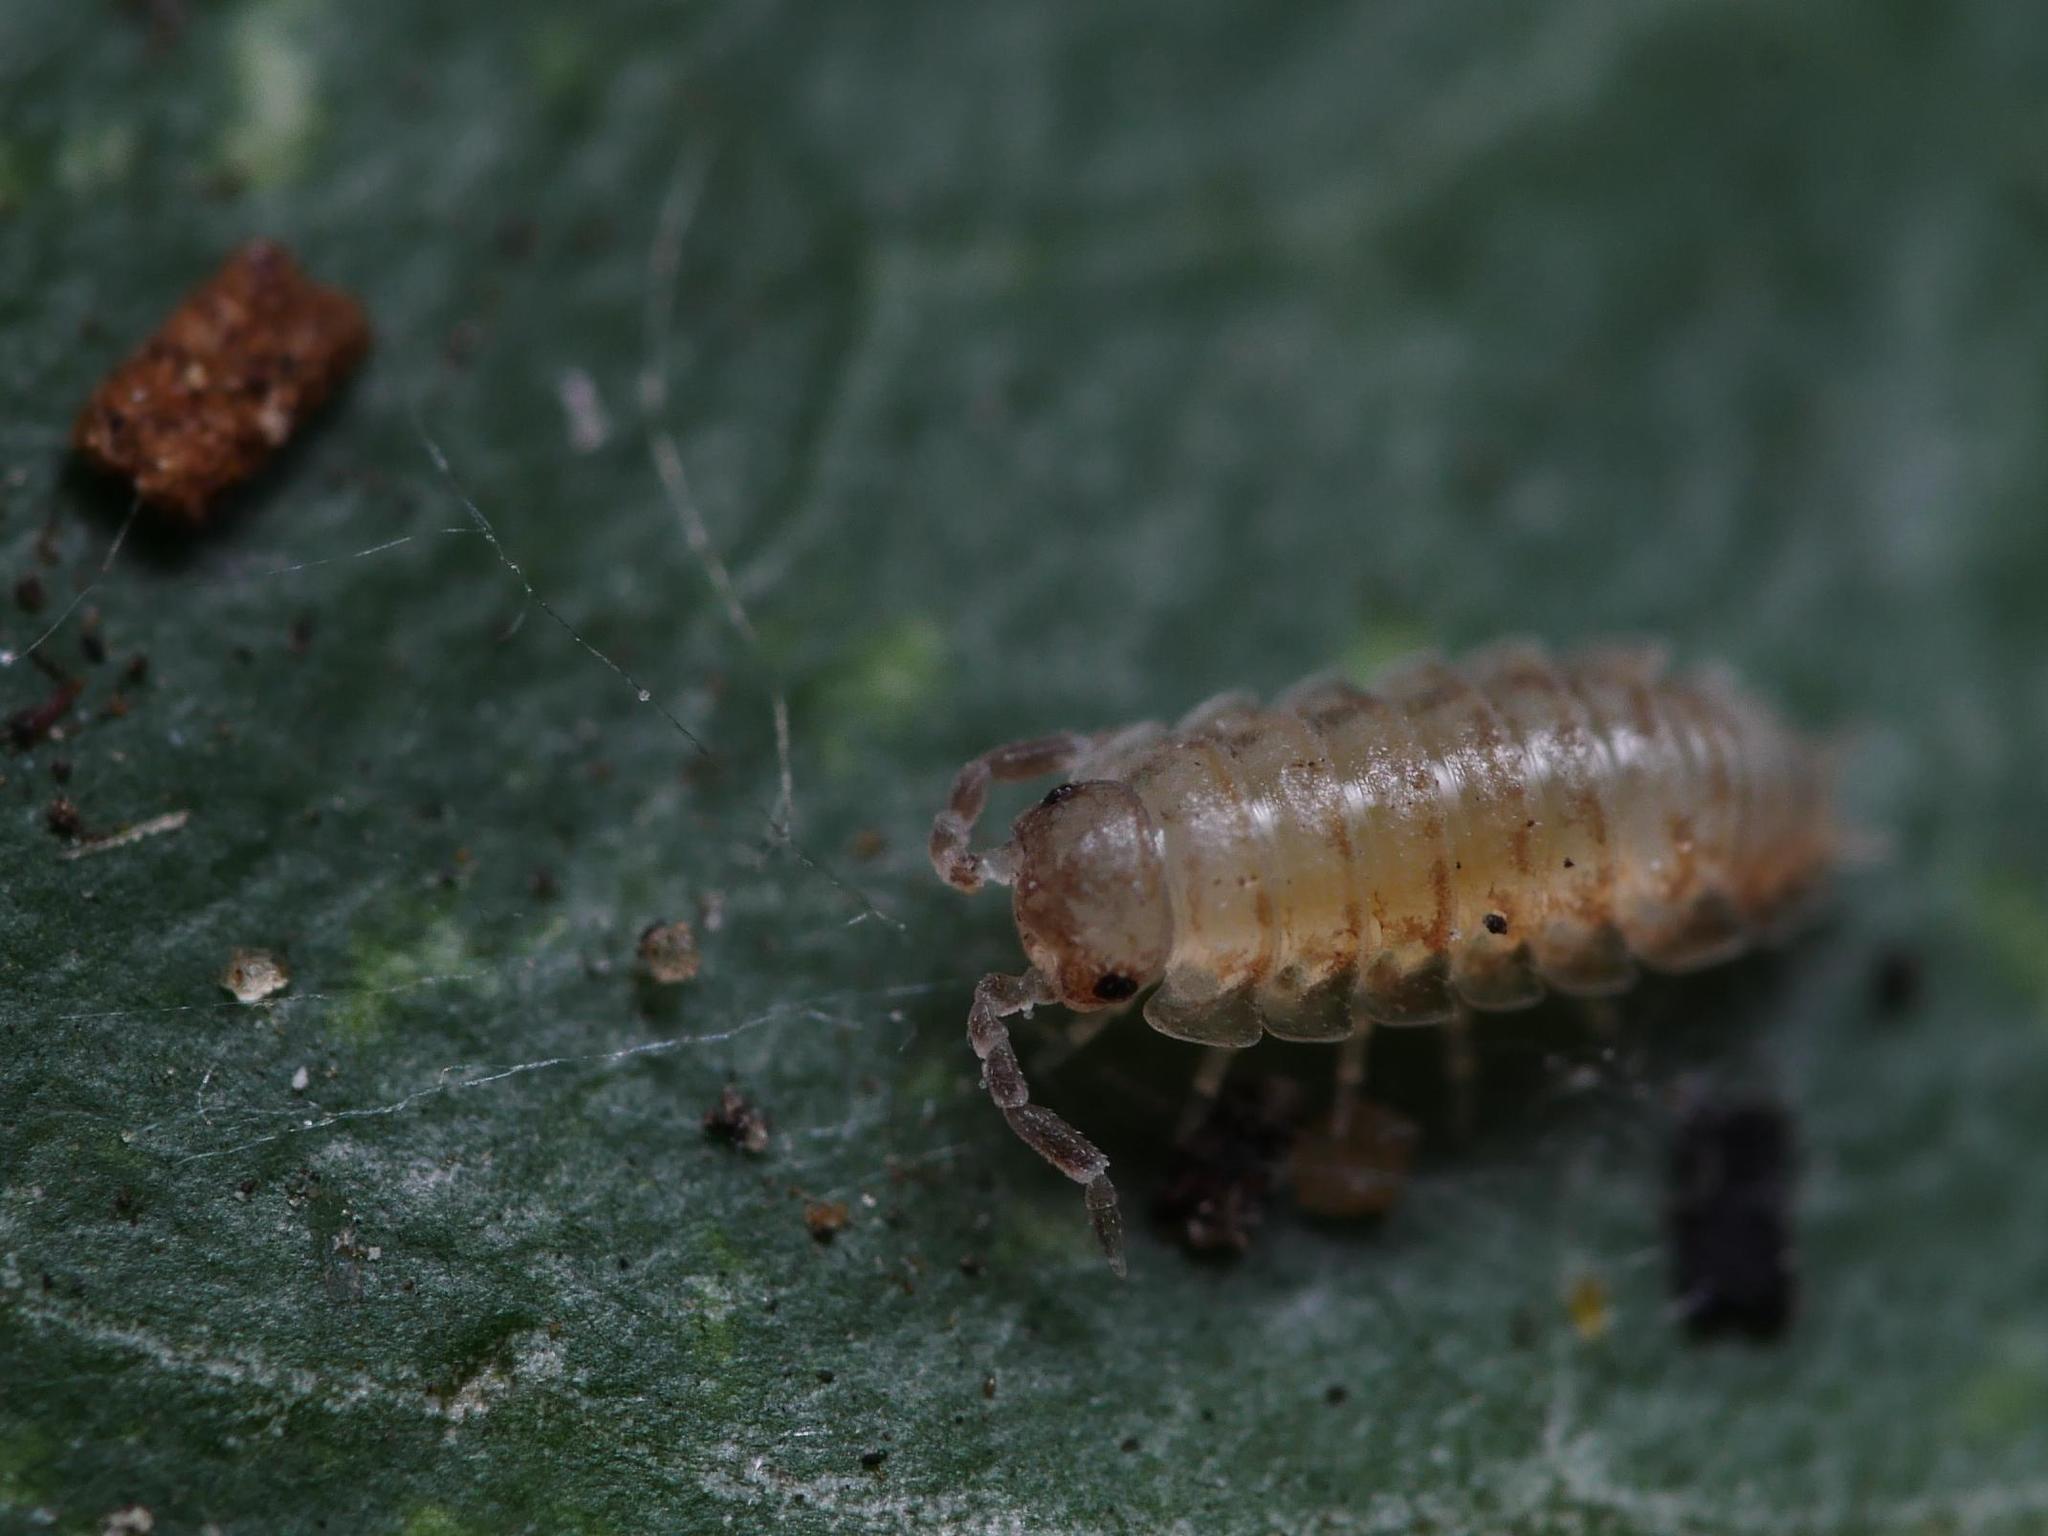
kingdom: Animalia
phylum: Arthropoda
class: Malacostraca
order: Isopoda
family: Porcellionidae
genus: Porcellio
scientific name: Porcellio scaber
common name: Common rough woodlouse
